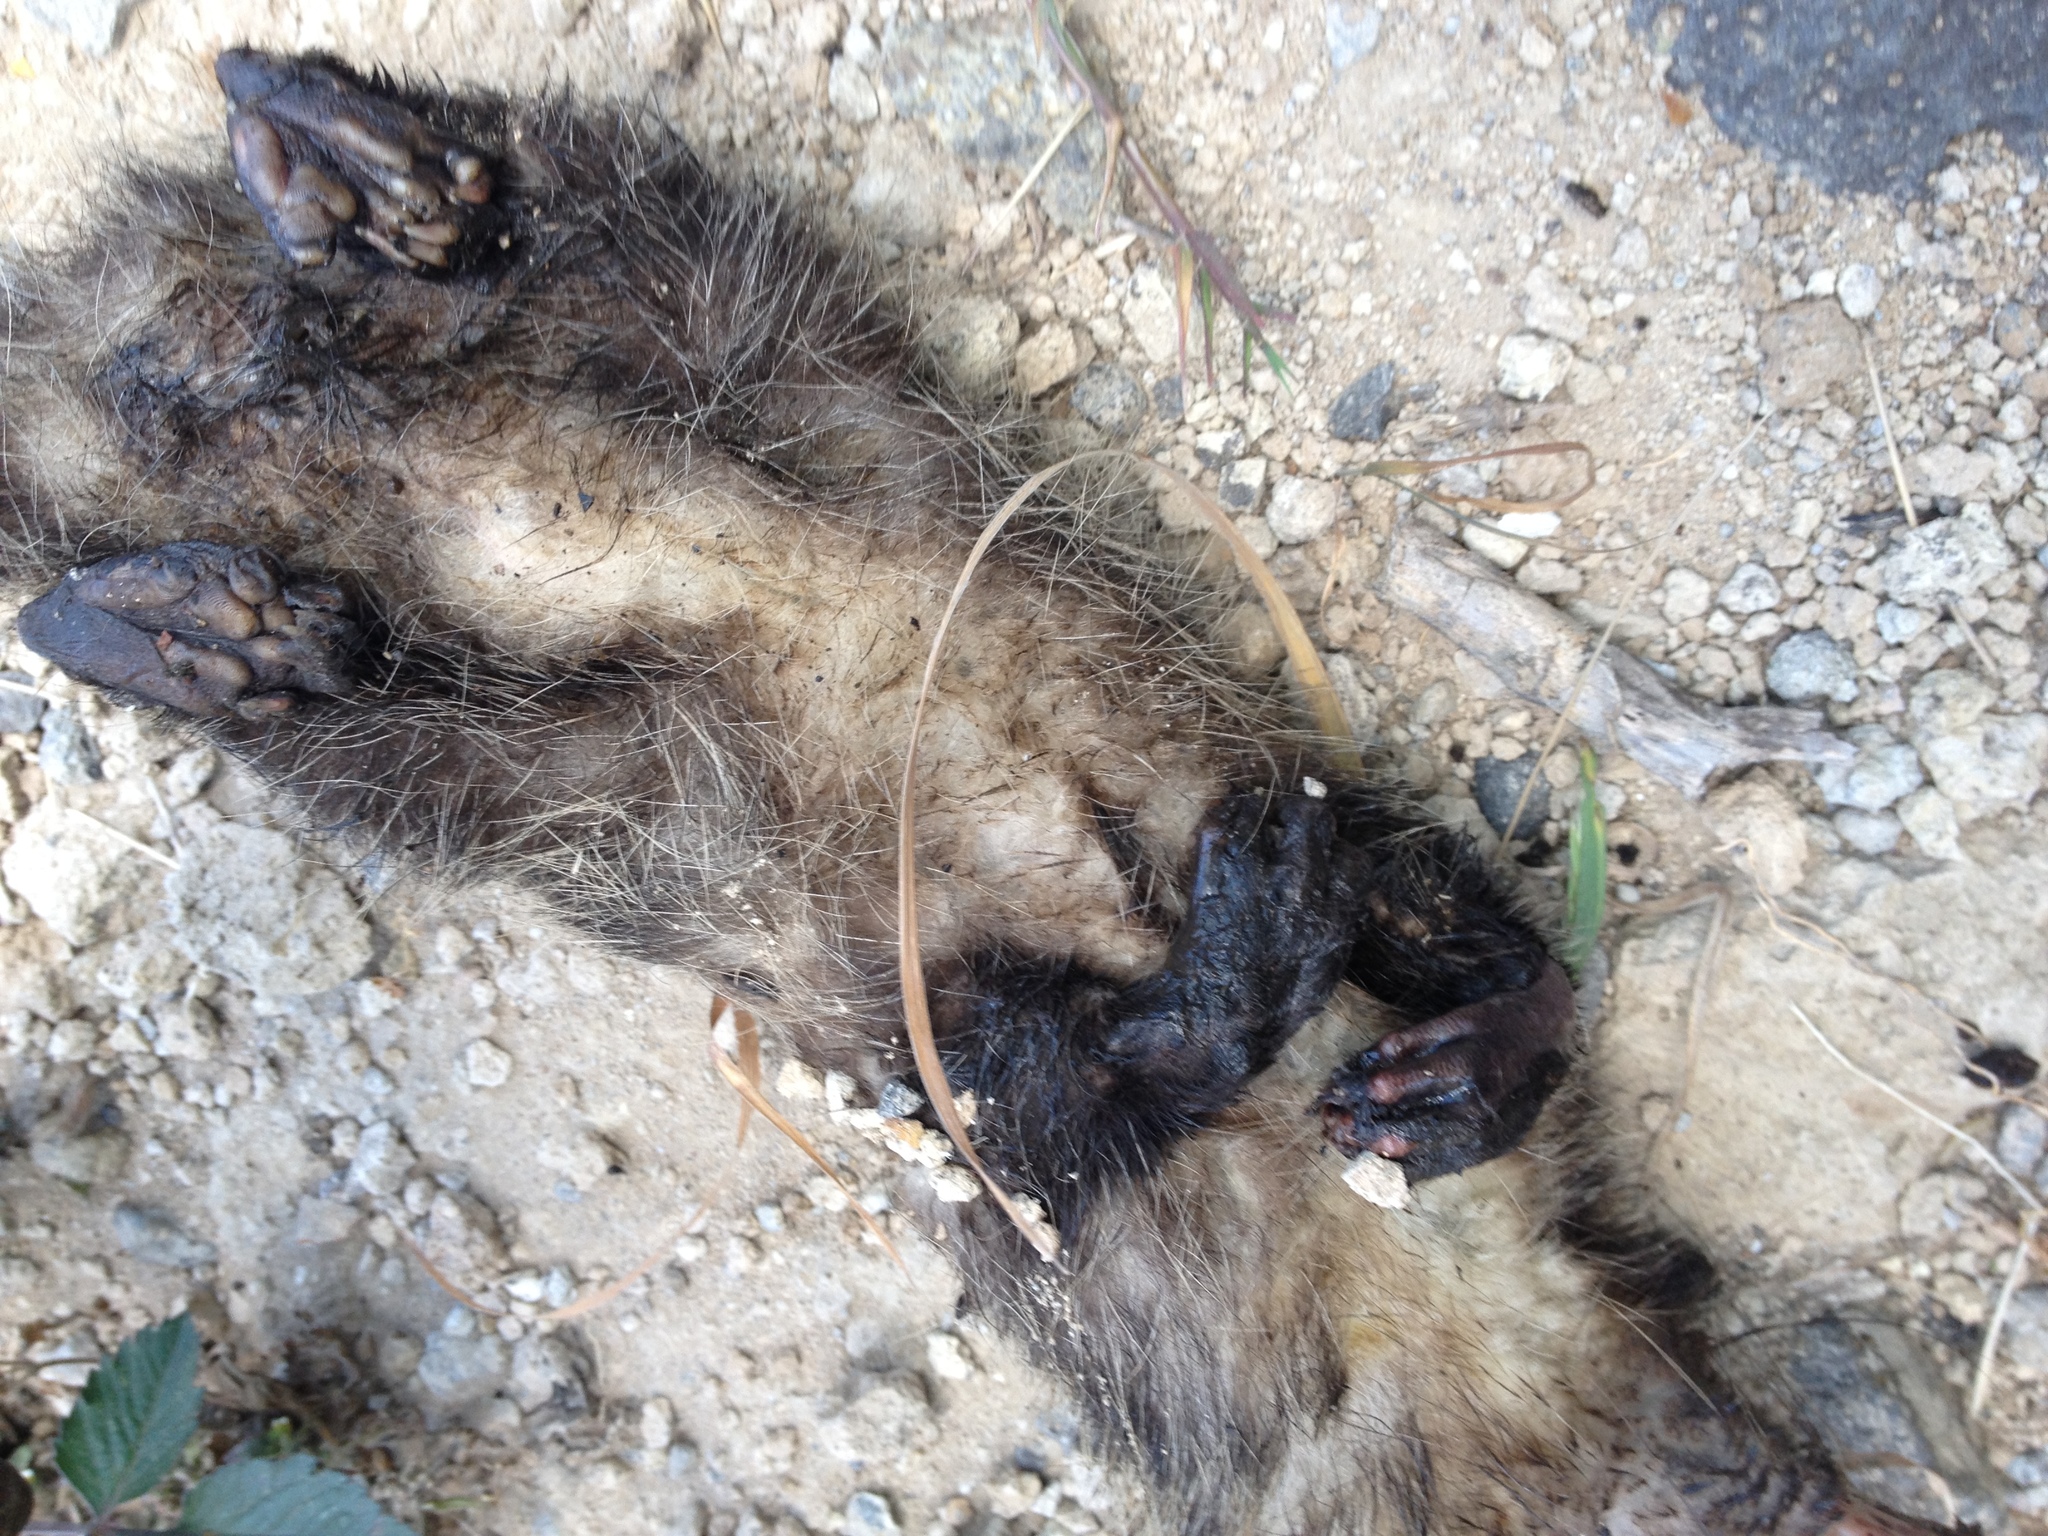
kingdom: Animalia
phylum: Chordata
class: Mammalia
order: Didelphimorphia
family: Didelphidae
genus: Didelphis
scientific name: Didelphis virginiana
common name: Virginia opossum
